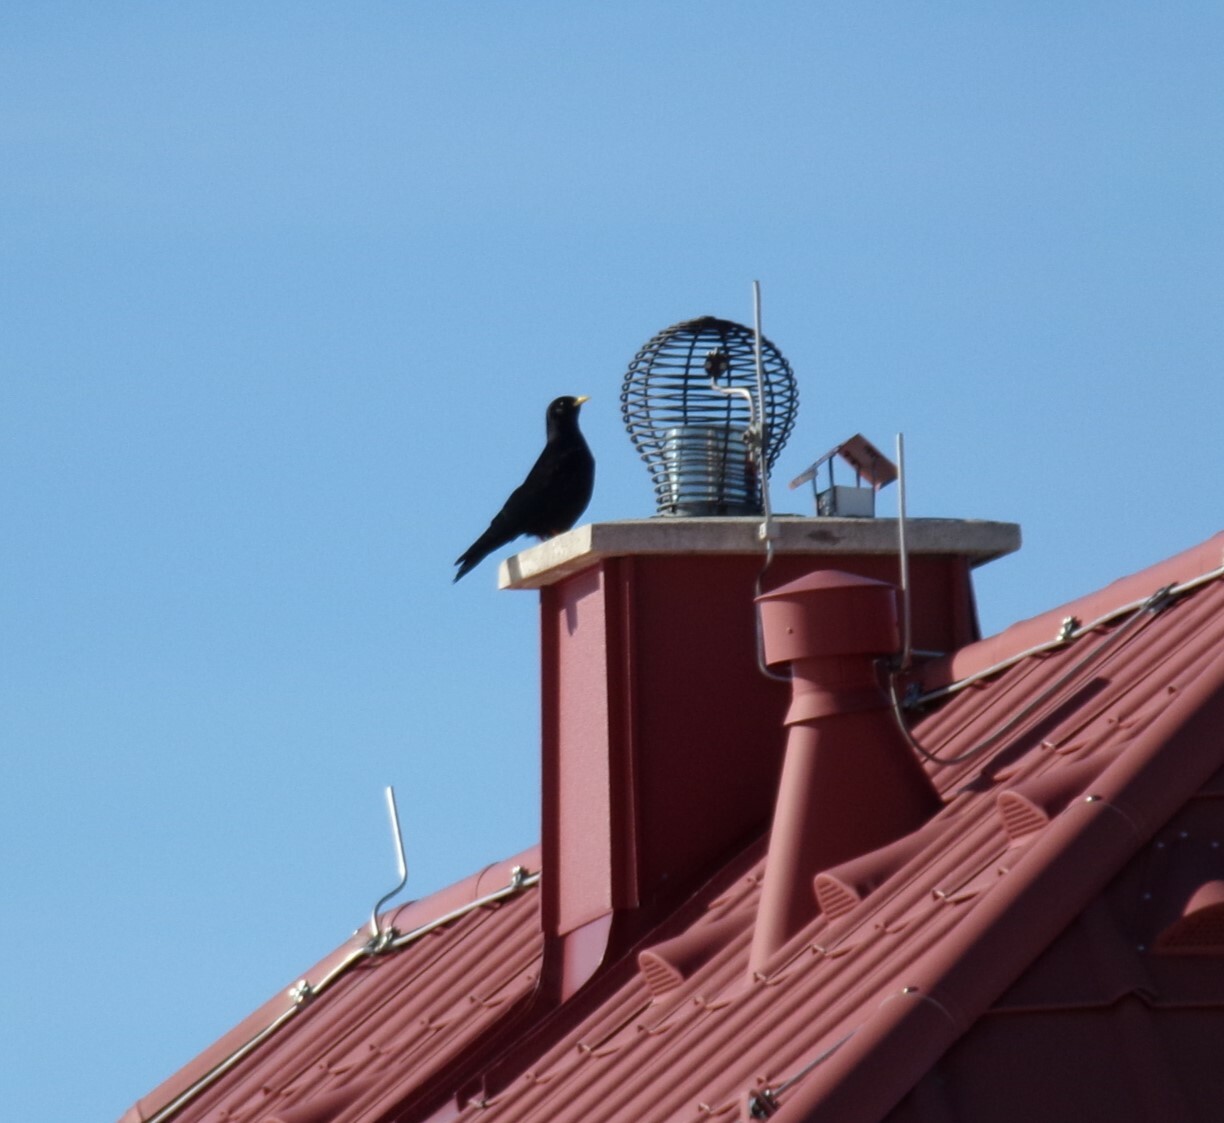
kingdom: Animalia
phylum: Chordata
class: Aves
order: Passeriformes
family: Corvidae
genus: Pyrrhocorax
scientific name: Pyrrhocorax graculus
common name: Alpine chough
